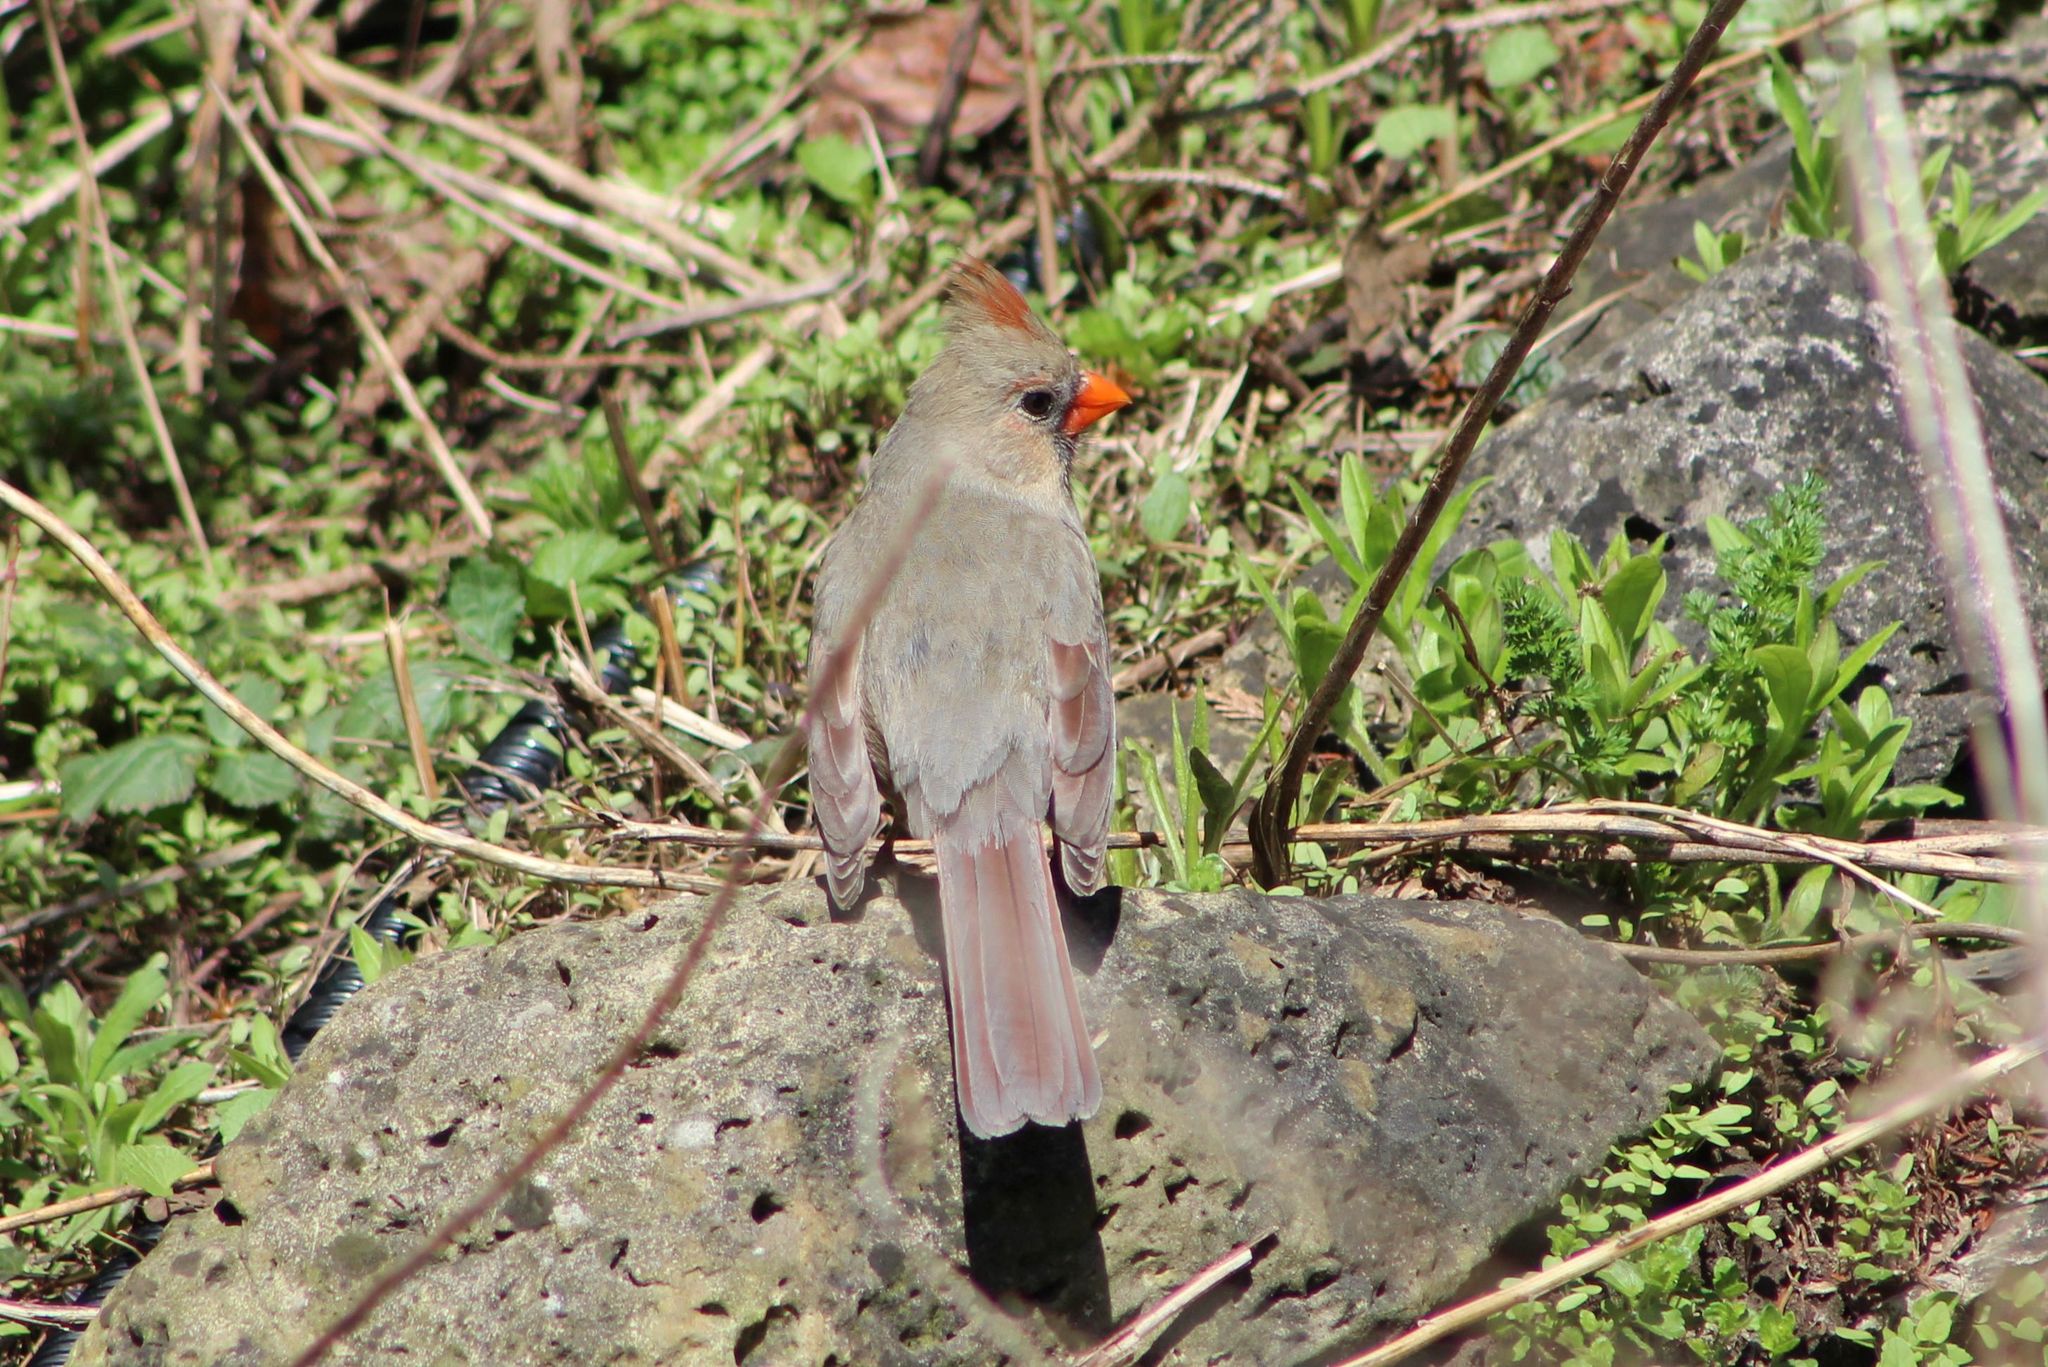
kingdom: Animalia
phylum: Chordata
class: Aves
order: Passeriformes
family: Cardinalidae
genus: Cardinalis
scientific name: Cardinalis cardinalis
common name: Northern cardinal
